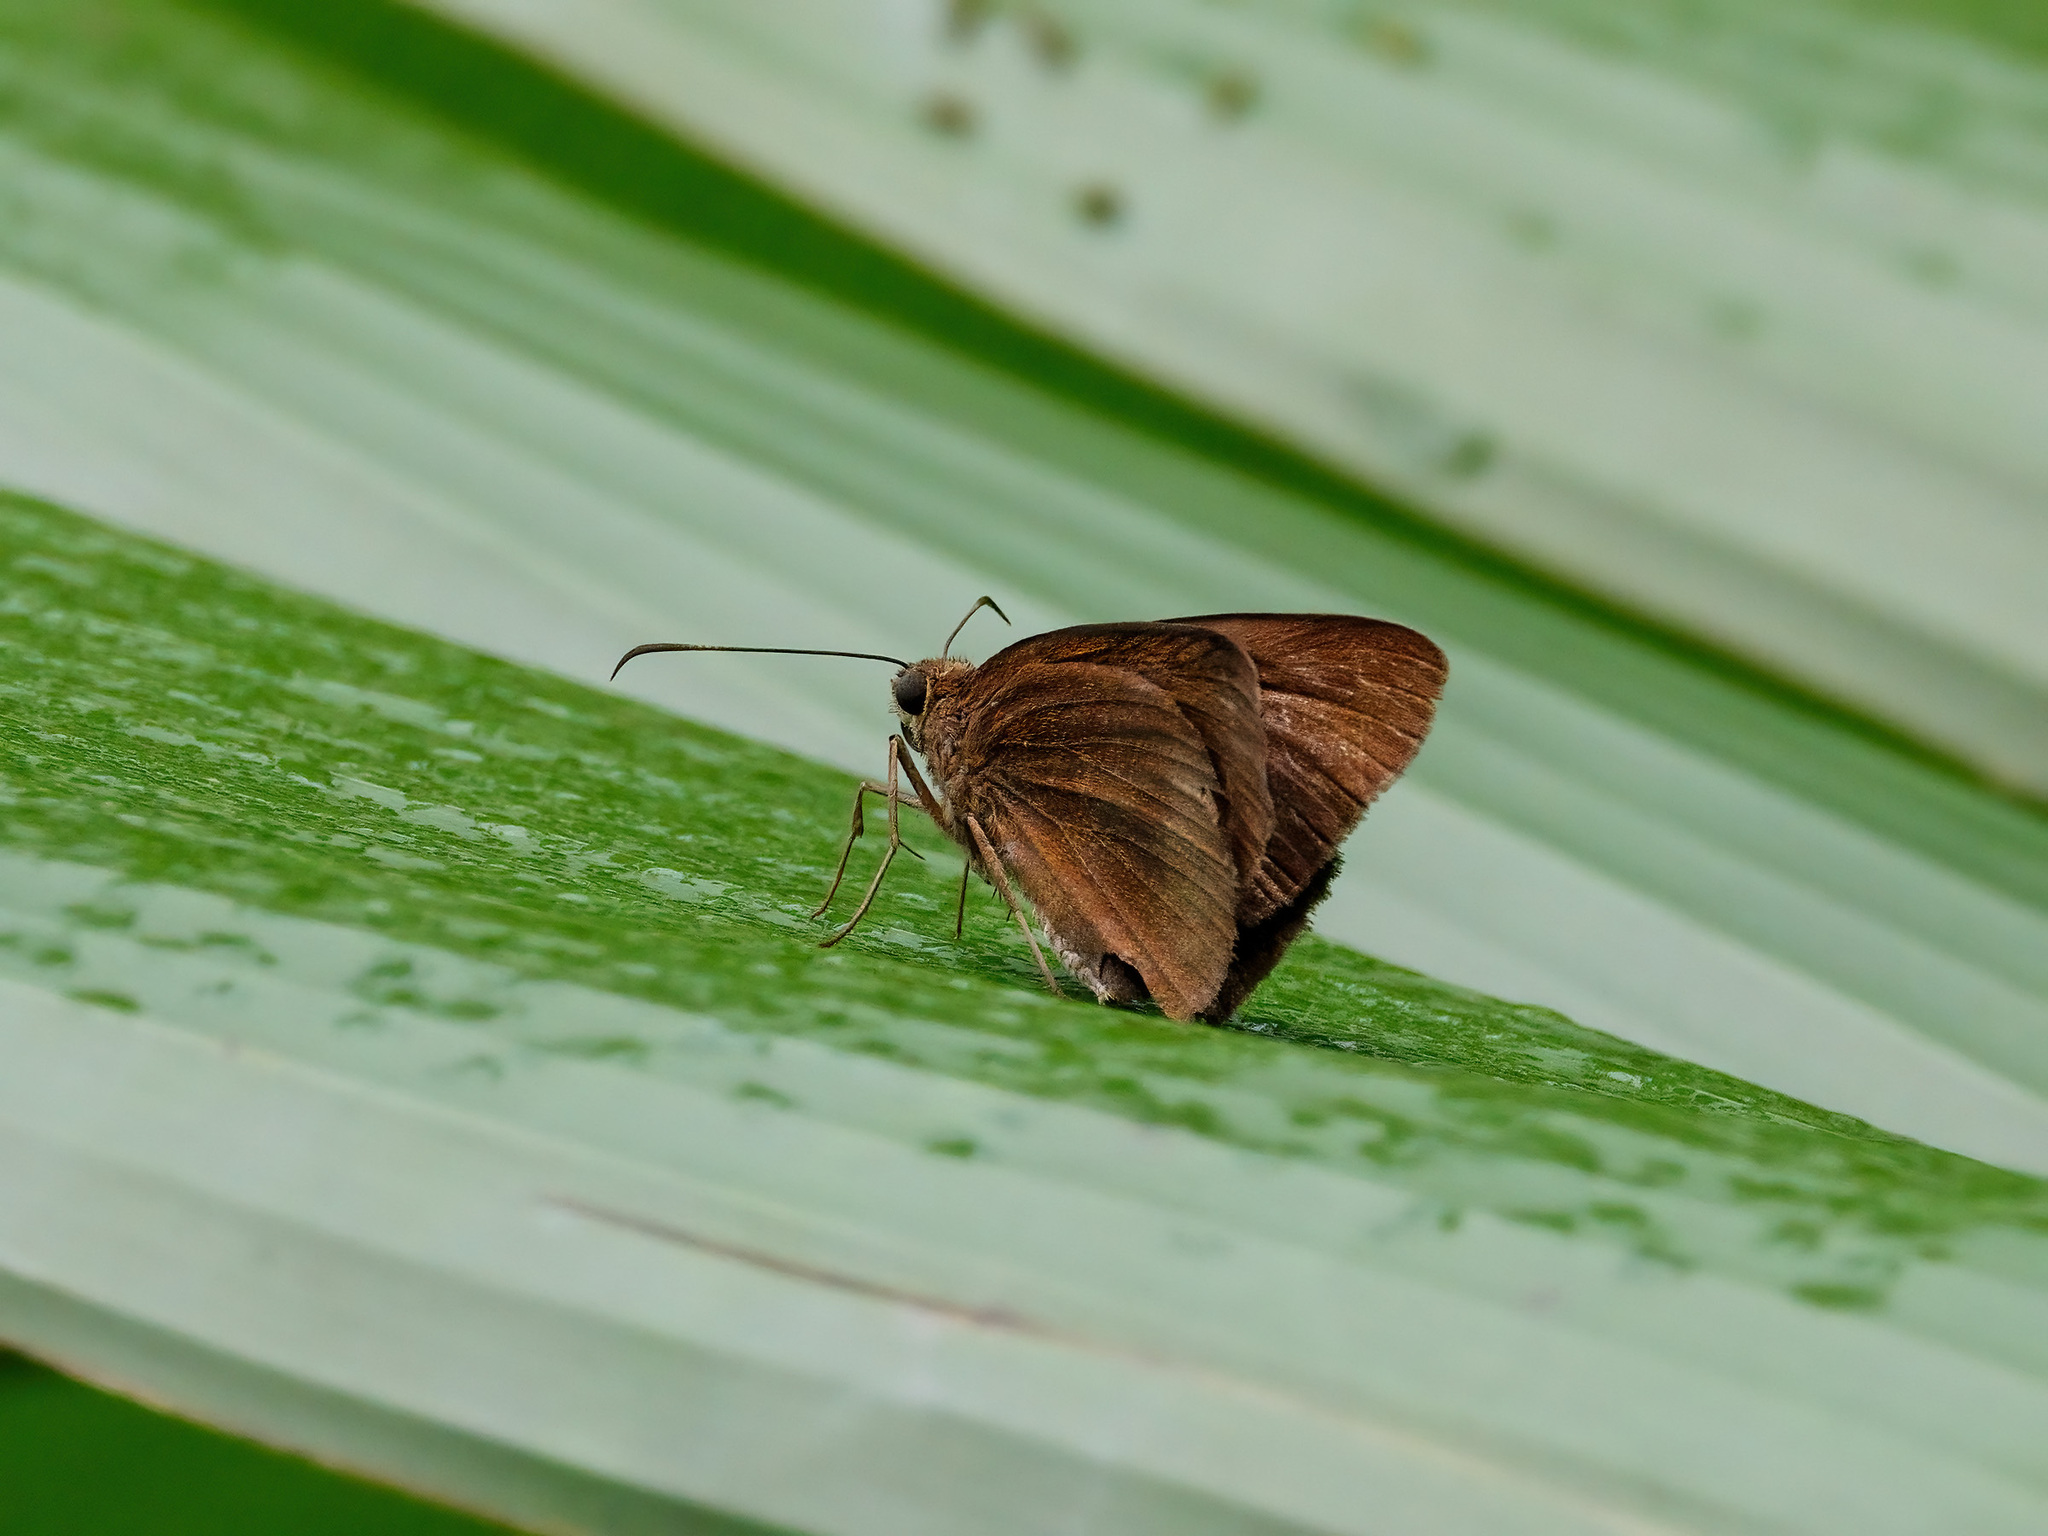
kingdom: Animalia
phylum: Arthropoda
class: Insecta
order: Lepidoptera
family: Hesperiidae
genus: Ancistroides
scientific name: Ancistroides nigrita
